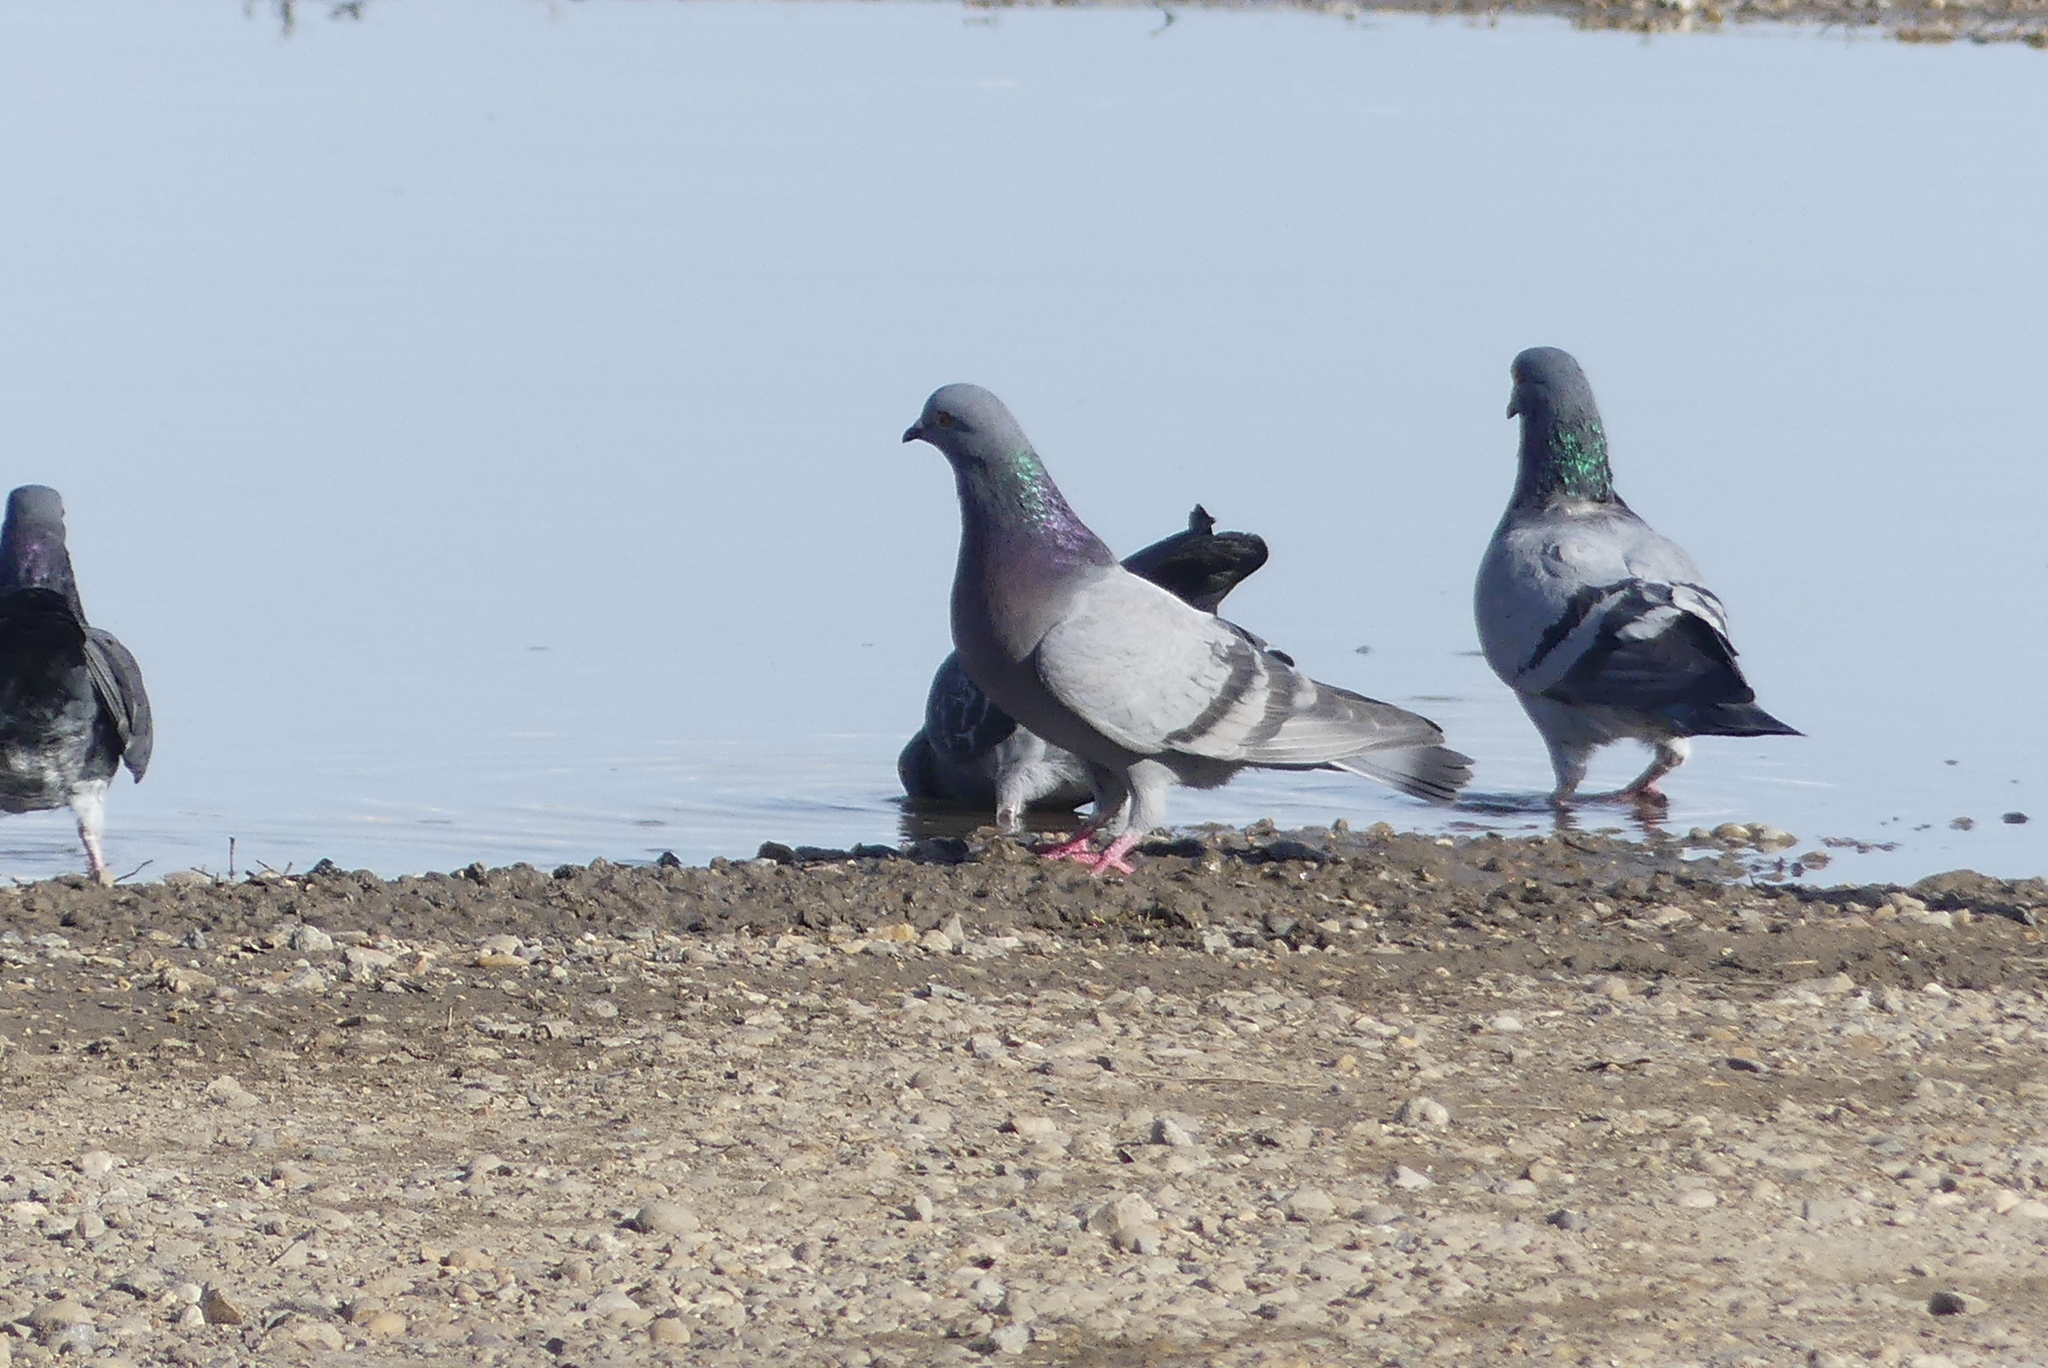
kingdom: Animalia
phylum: Chordata
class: Aves
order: Columbiformes
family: Columbidae
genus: Columba
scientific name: Columba livia
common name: Rock pigeon
